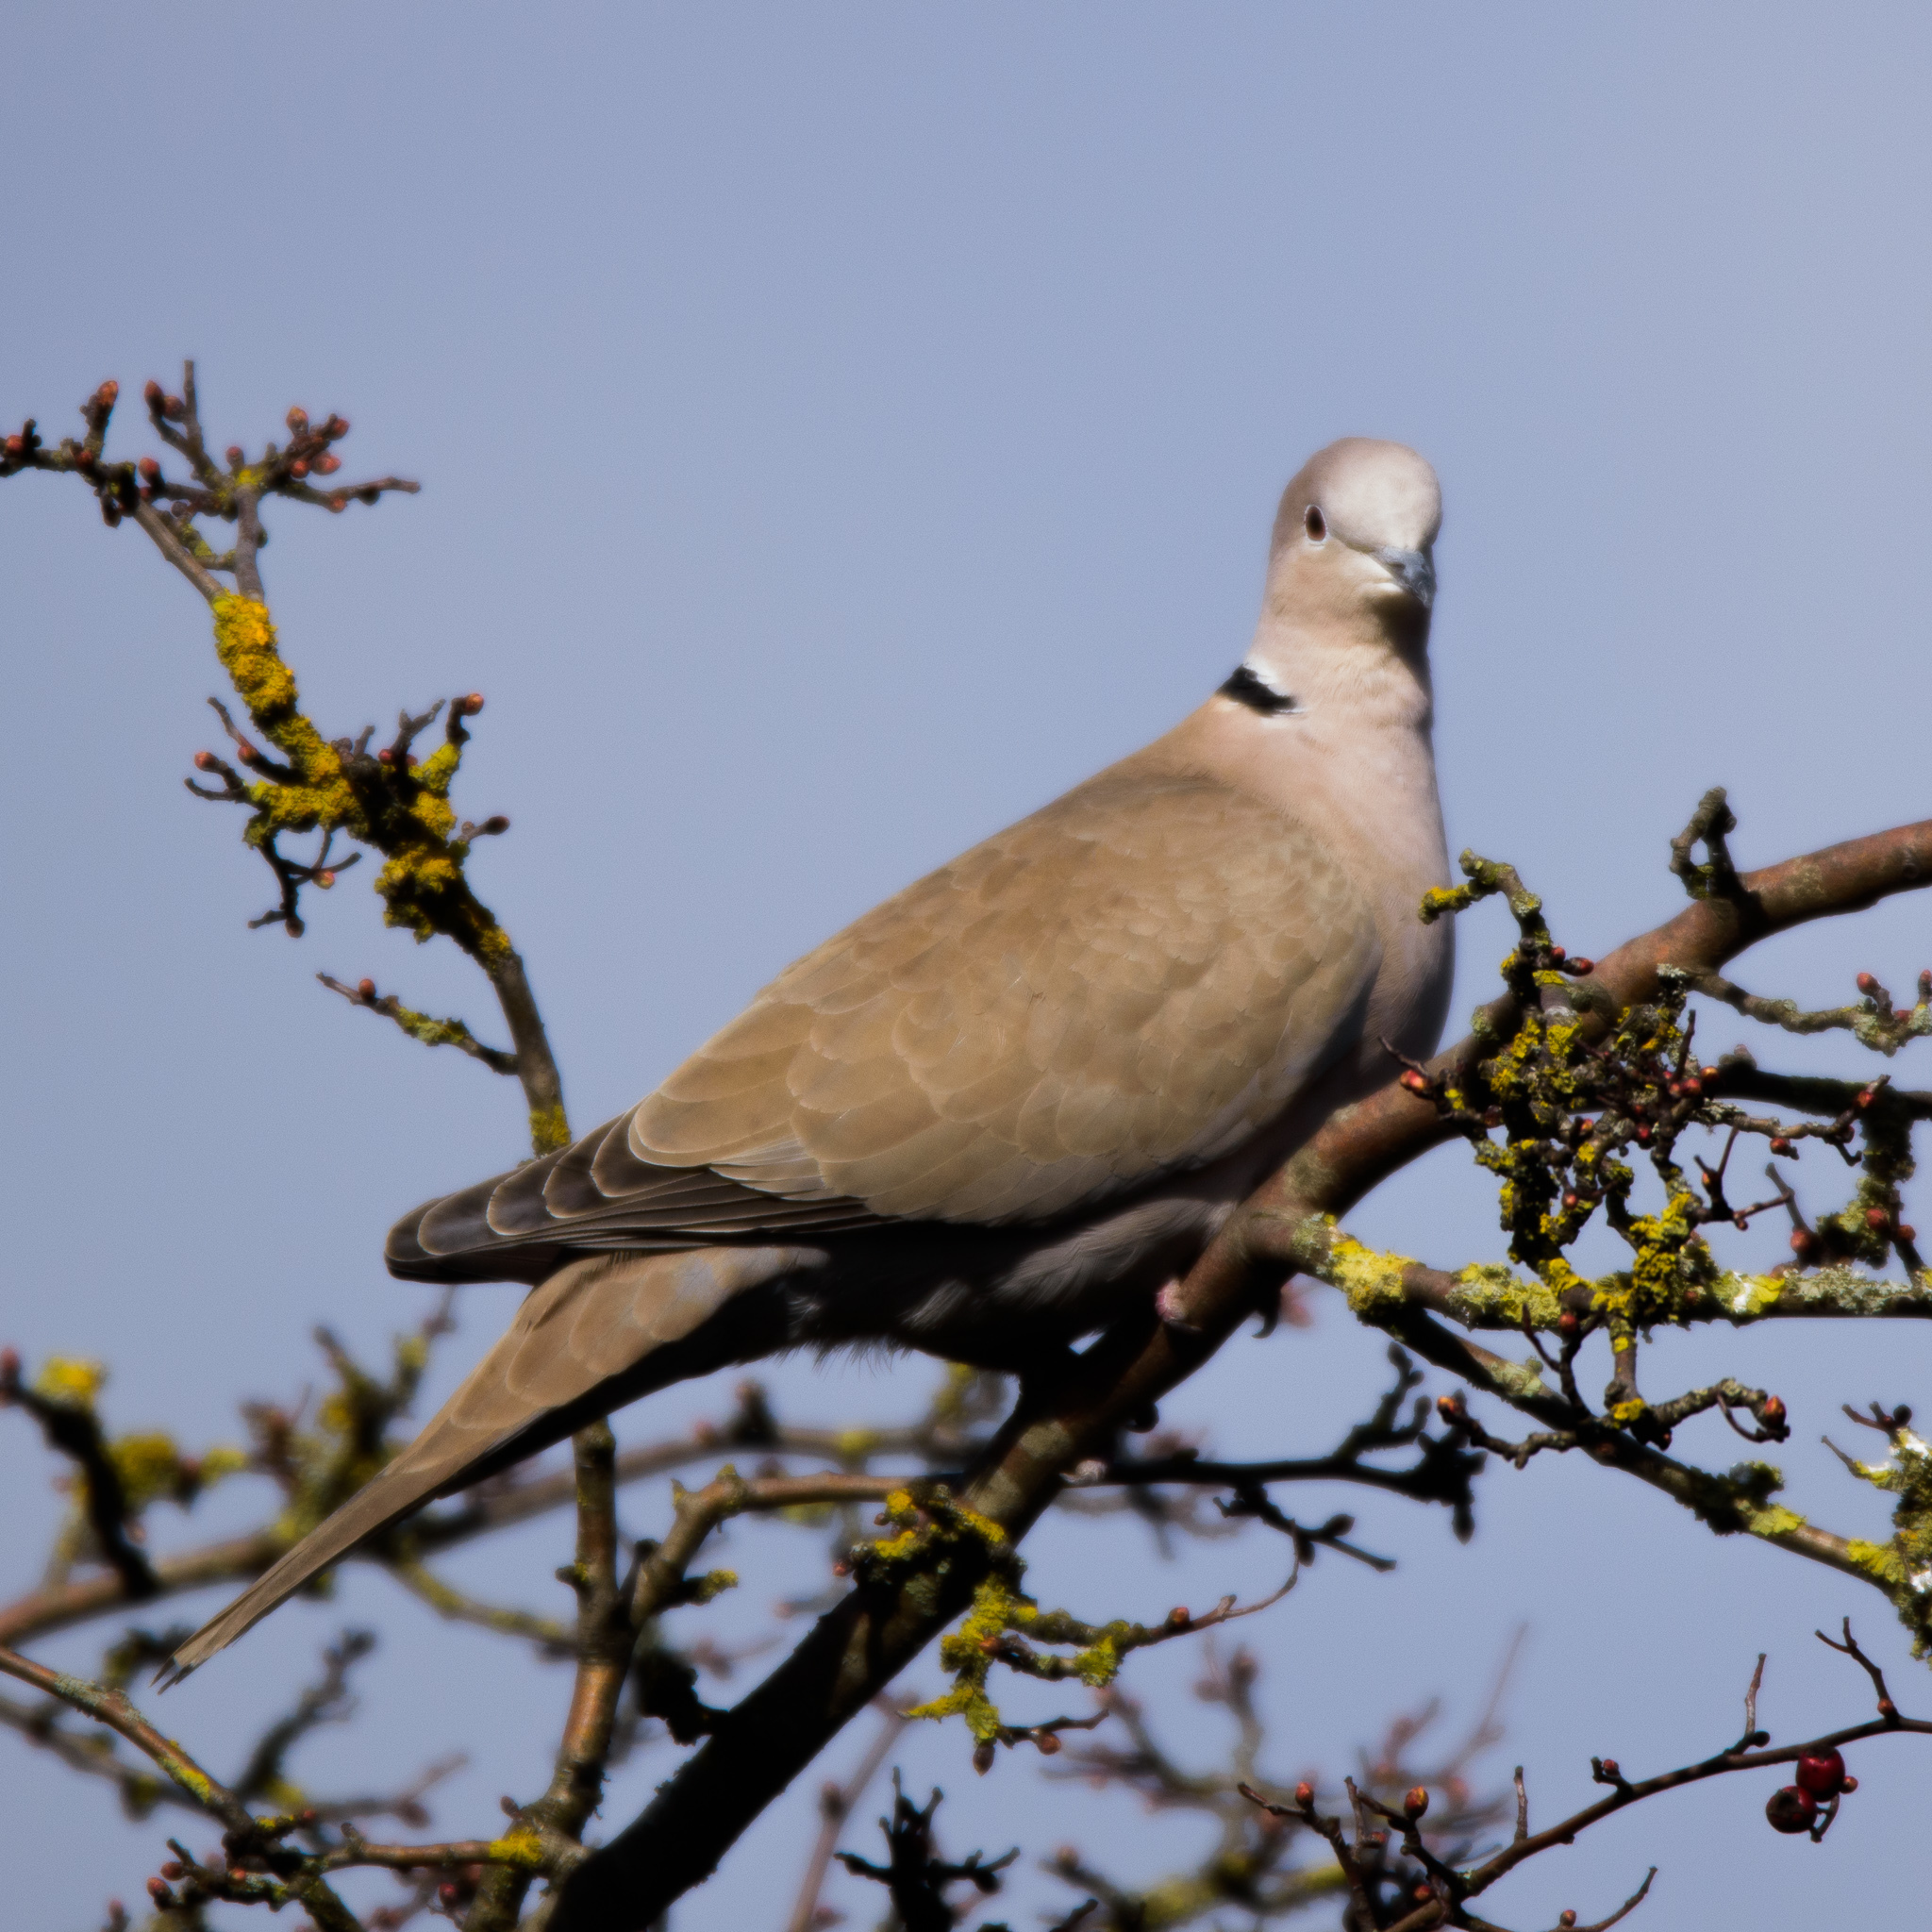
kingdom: Animalia
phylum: Chordata
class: Aves
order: Columbiformes
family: Columbidae
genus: Streptopelia
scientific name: Streptopelia decaocto
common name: Eurasian collared dove
